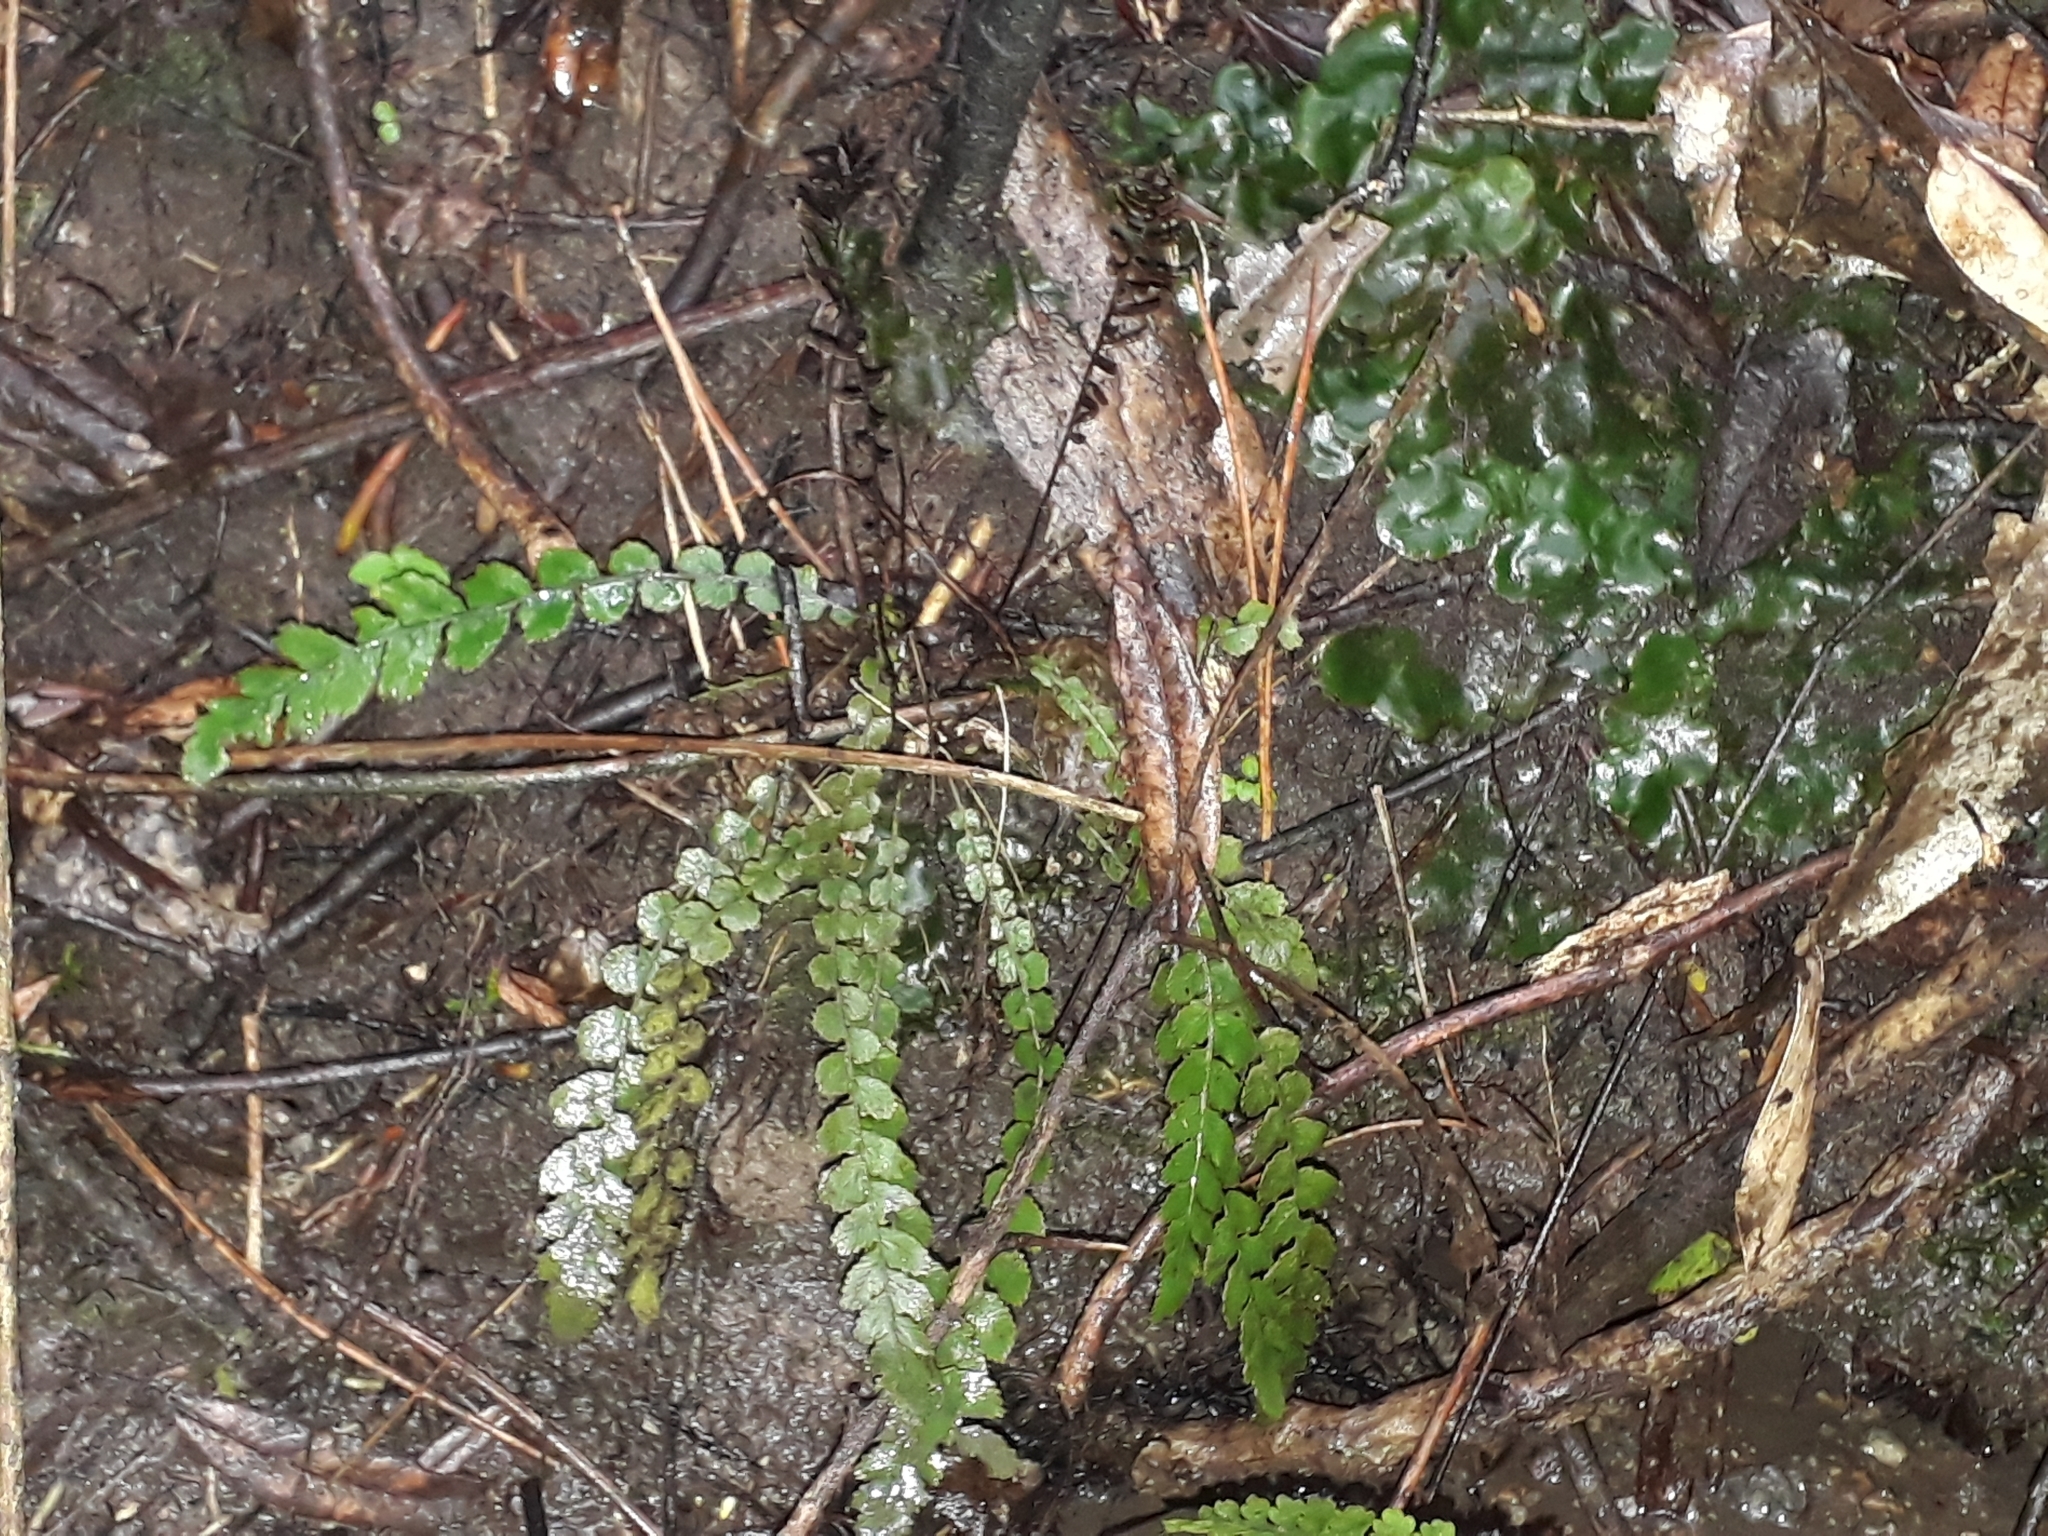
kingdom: Plantae
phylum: Tracheophyta
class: Polypodiopsida
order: Polypodiales
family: Blechnaceae
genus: Austroblechnum
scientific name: Austroblechnum membranaceum
